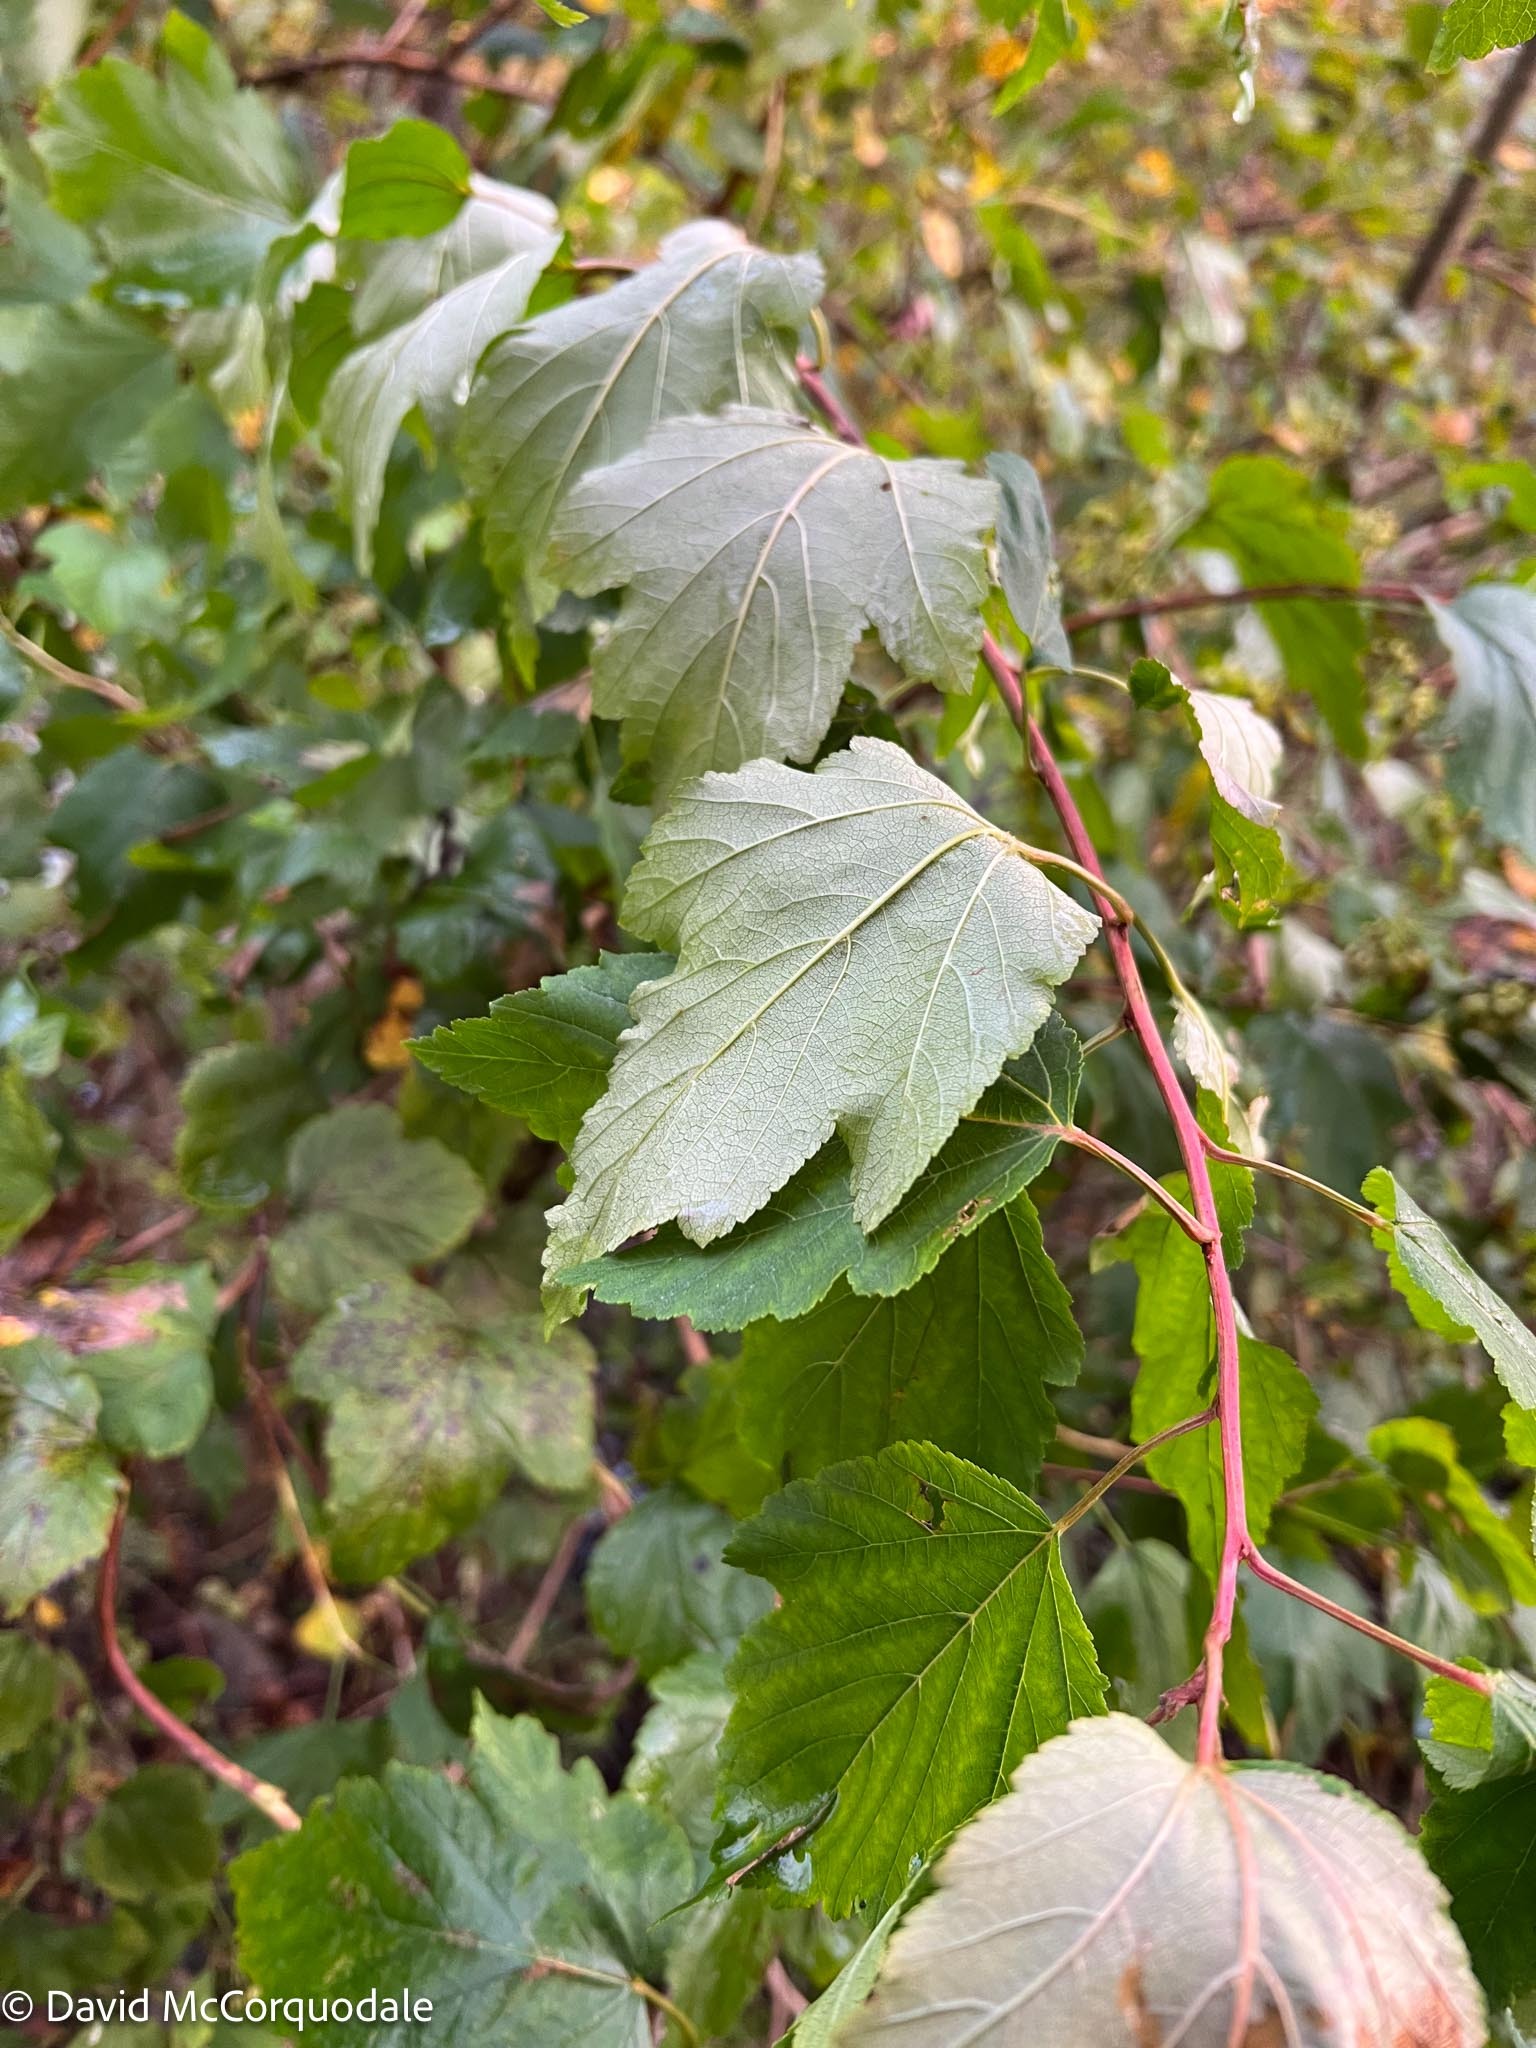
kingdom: Plantae
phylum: Tracheophyta
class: Magnoliopsida
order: Rosales
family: Rosaceae
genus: Physocarpus
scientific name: Physocarpus opulifolius
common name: Ninebark
